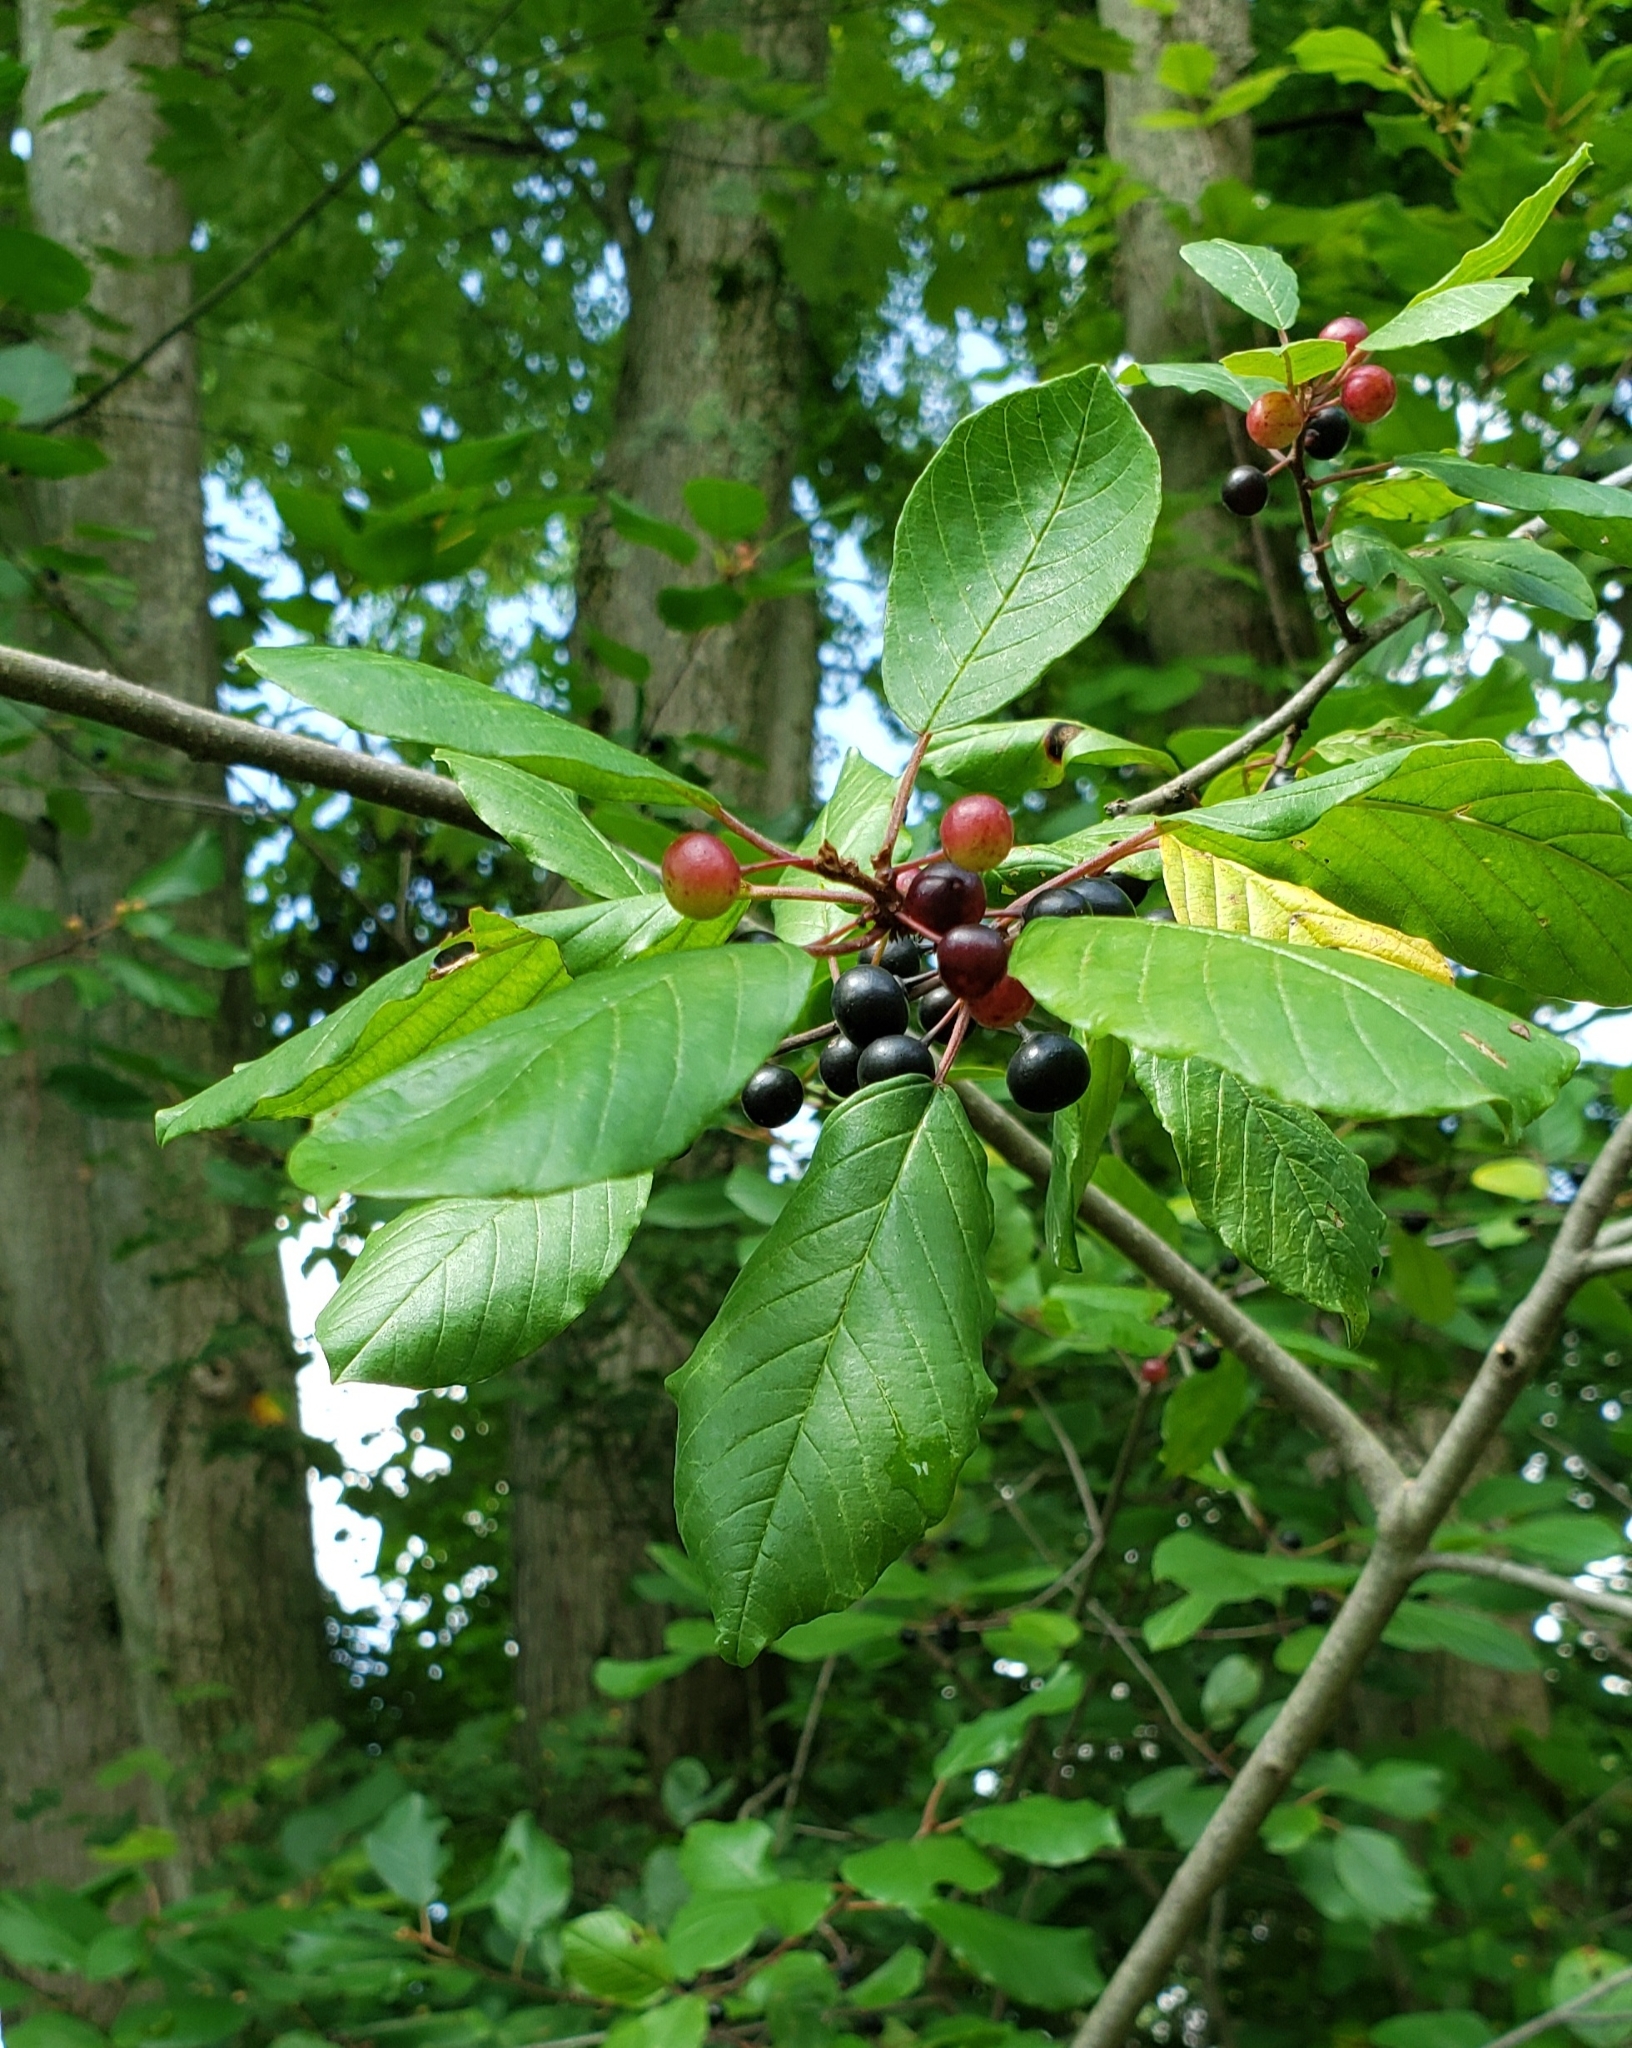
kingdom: Plantae
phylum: Tracheophyta
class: Magnoliopsida
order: Rosales
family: Rhamnaceae
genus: Frangula
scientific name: Frangula alnus
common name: Alder buckthorn
